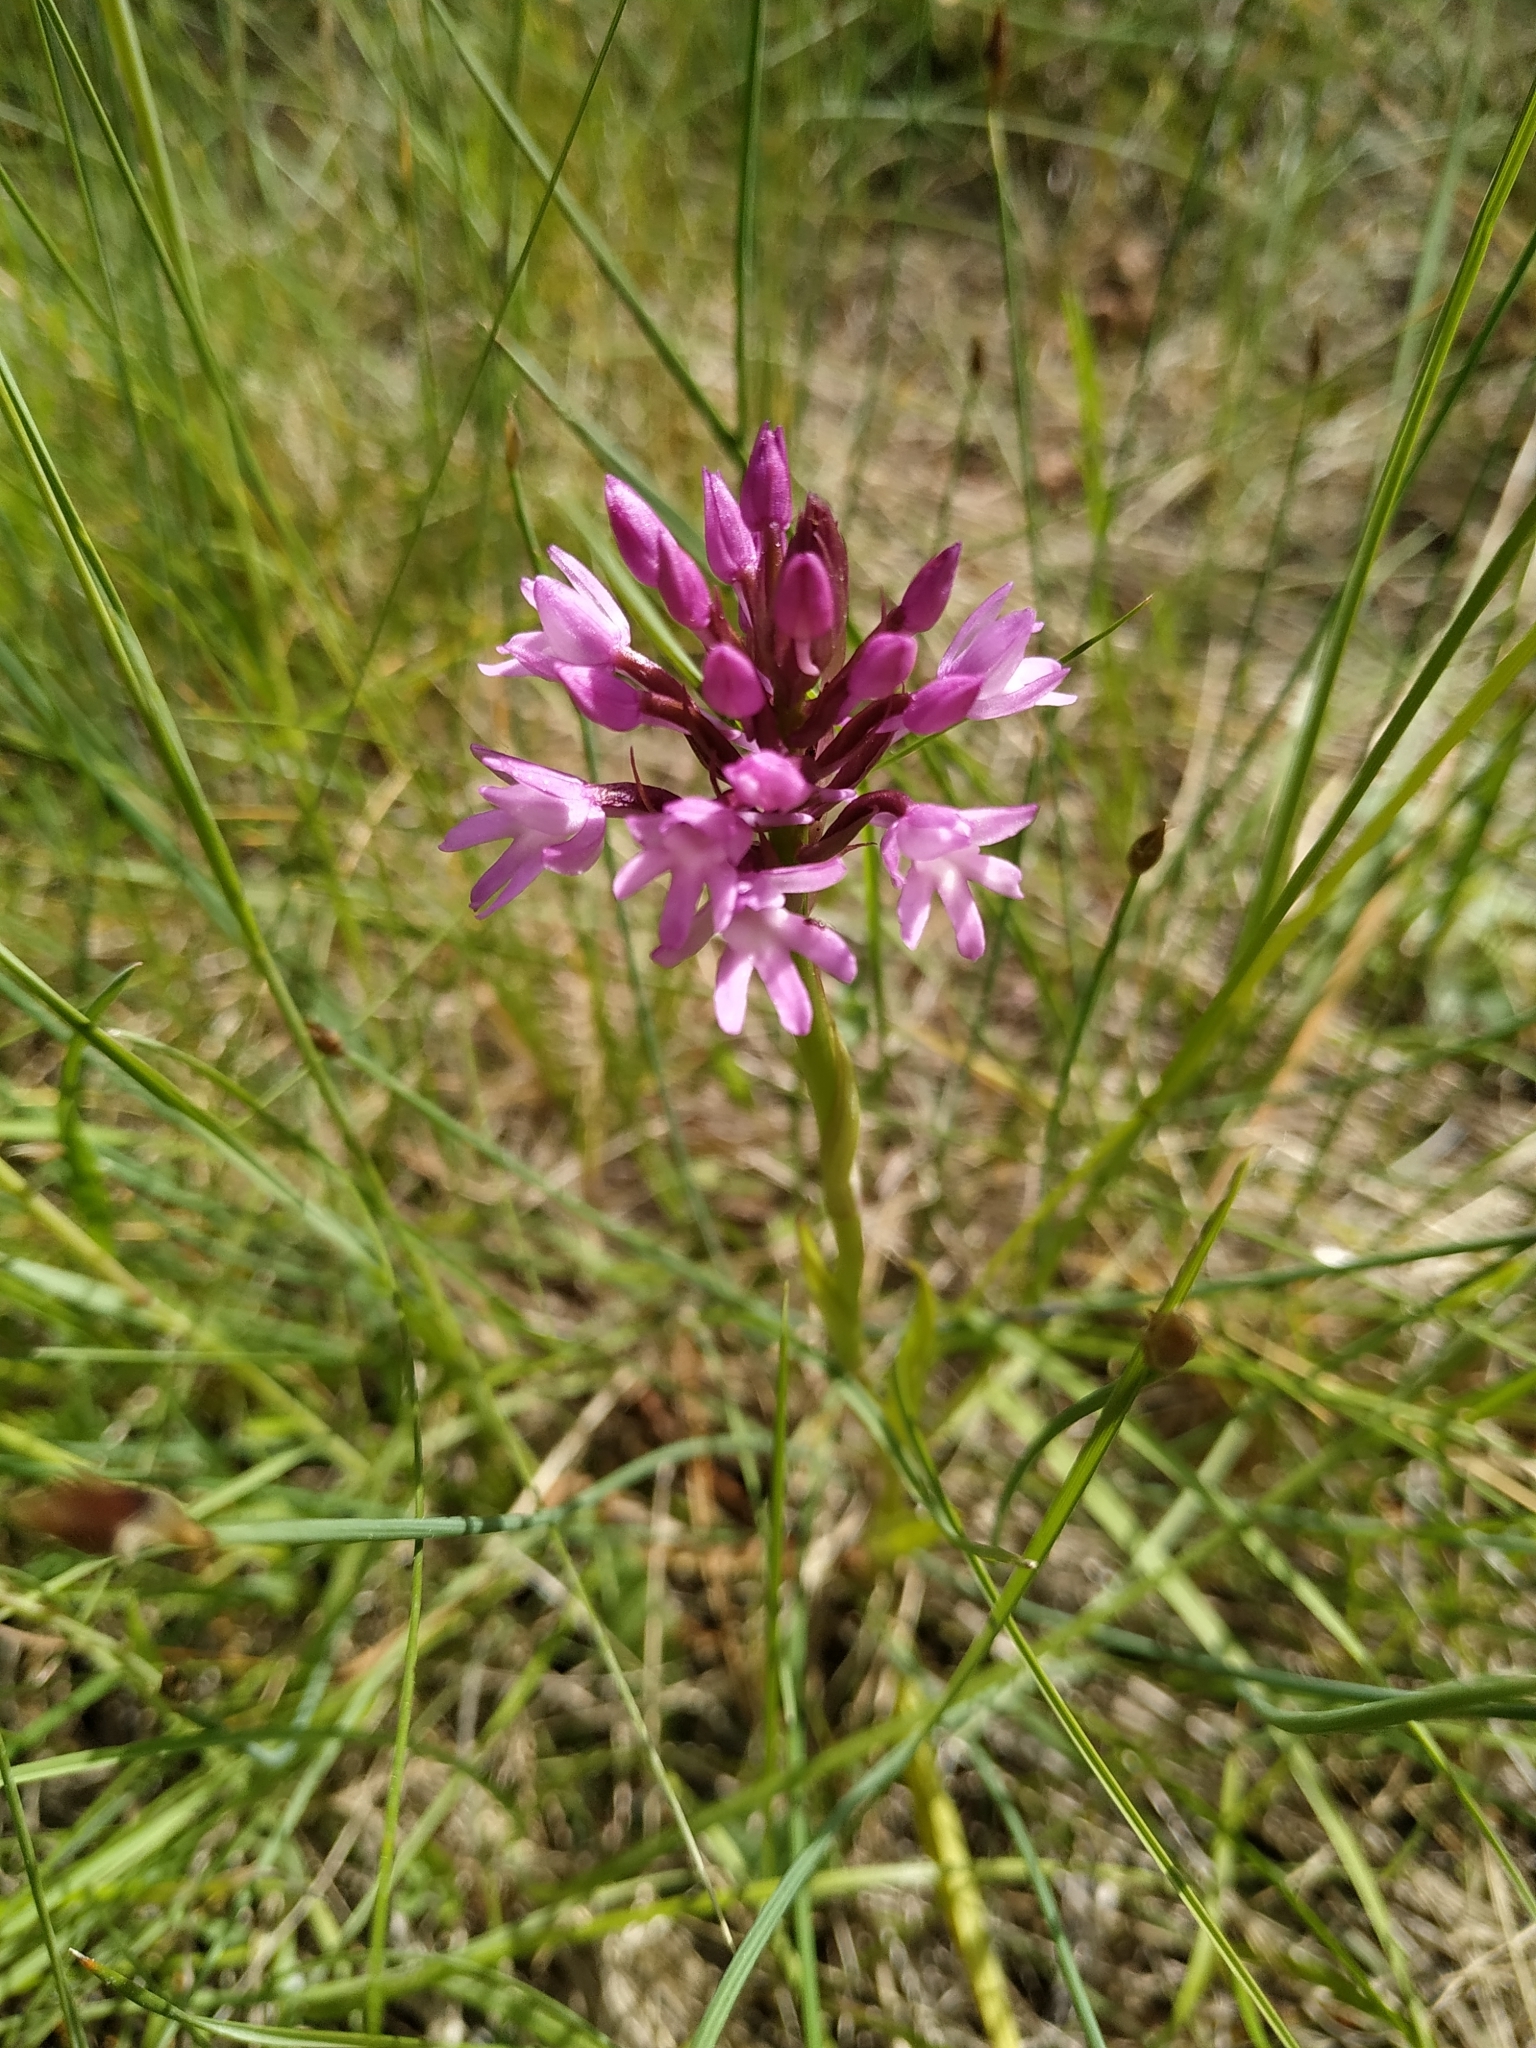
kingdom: Plantae
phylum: Tracheophyta
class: Liliopsida
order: Asparagales
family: Orchidaceae
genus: Anacamptis
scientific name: Anacamptis pyramidalis
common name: Pyramidal orchid
